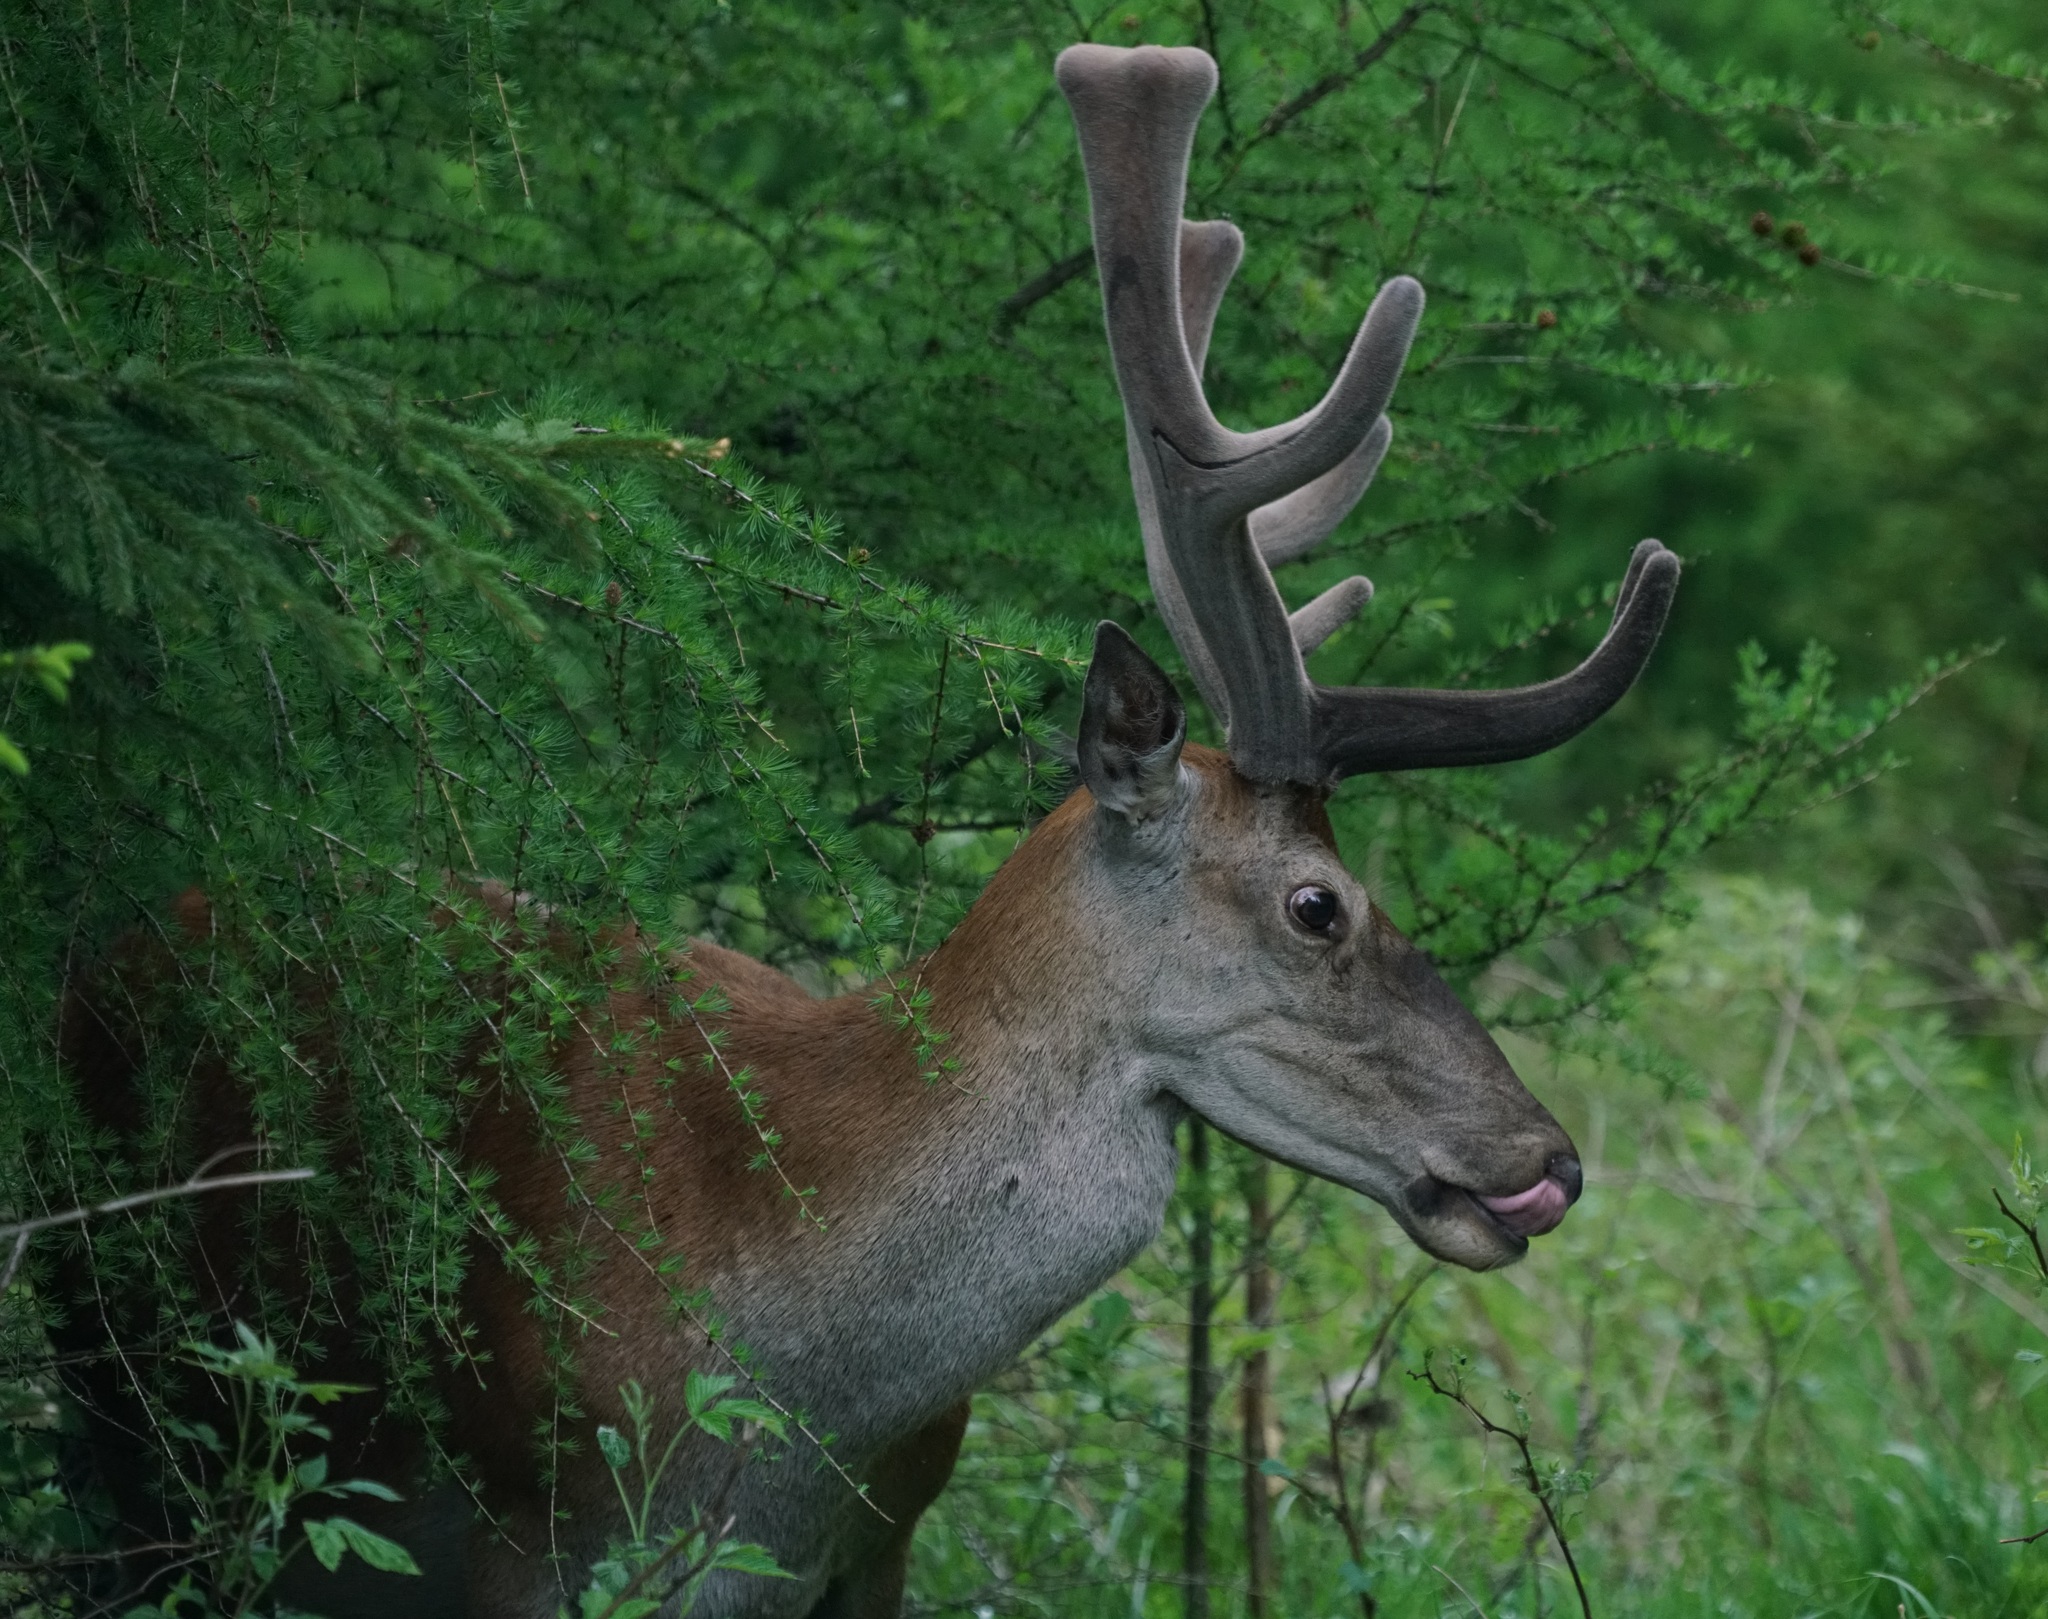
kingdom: Animalia
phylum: Chordata
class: Mammalia
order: Artiodactyla
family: Cervidae
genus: Cervus
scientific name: Cervus elaphus
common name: Red deer
